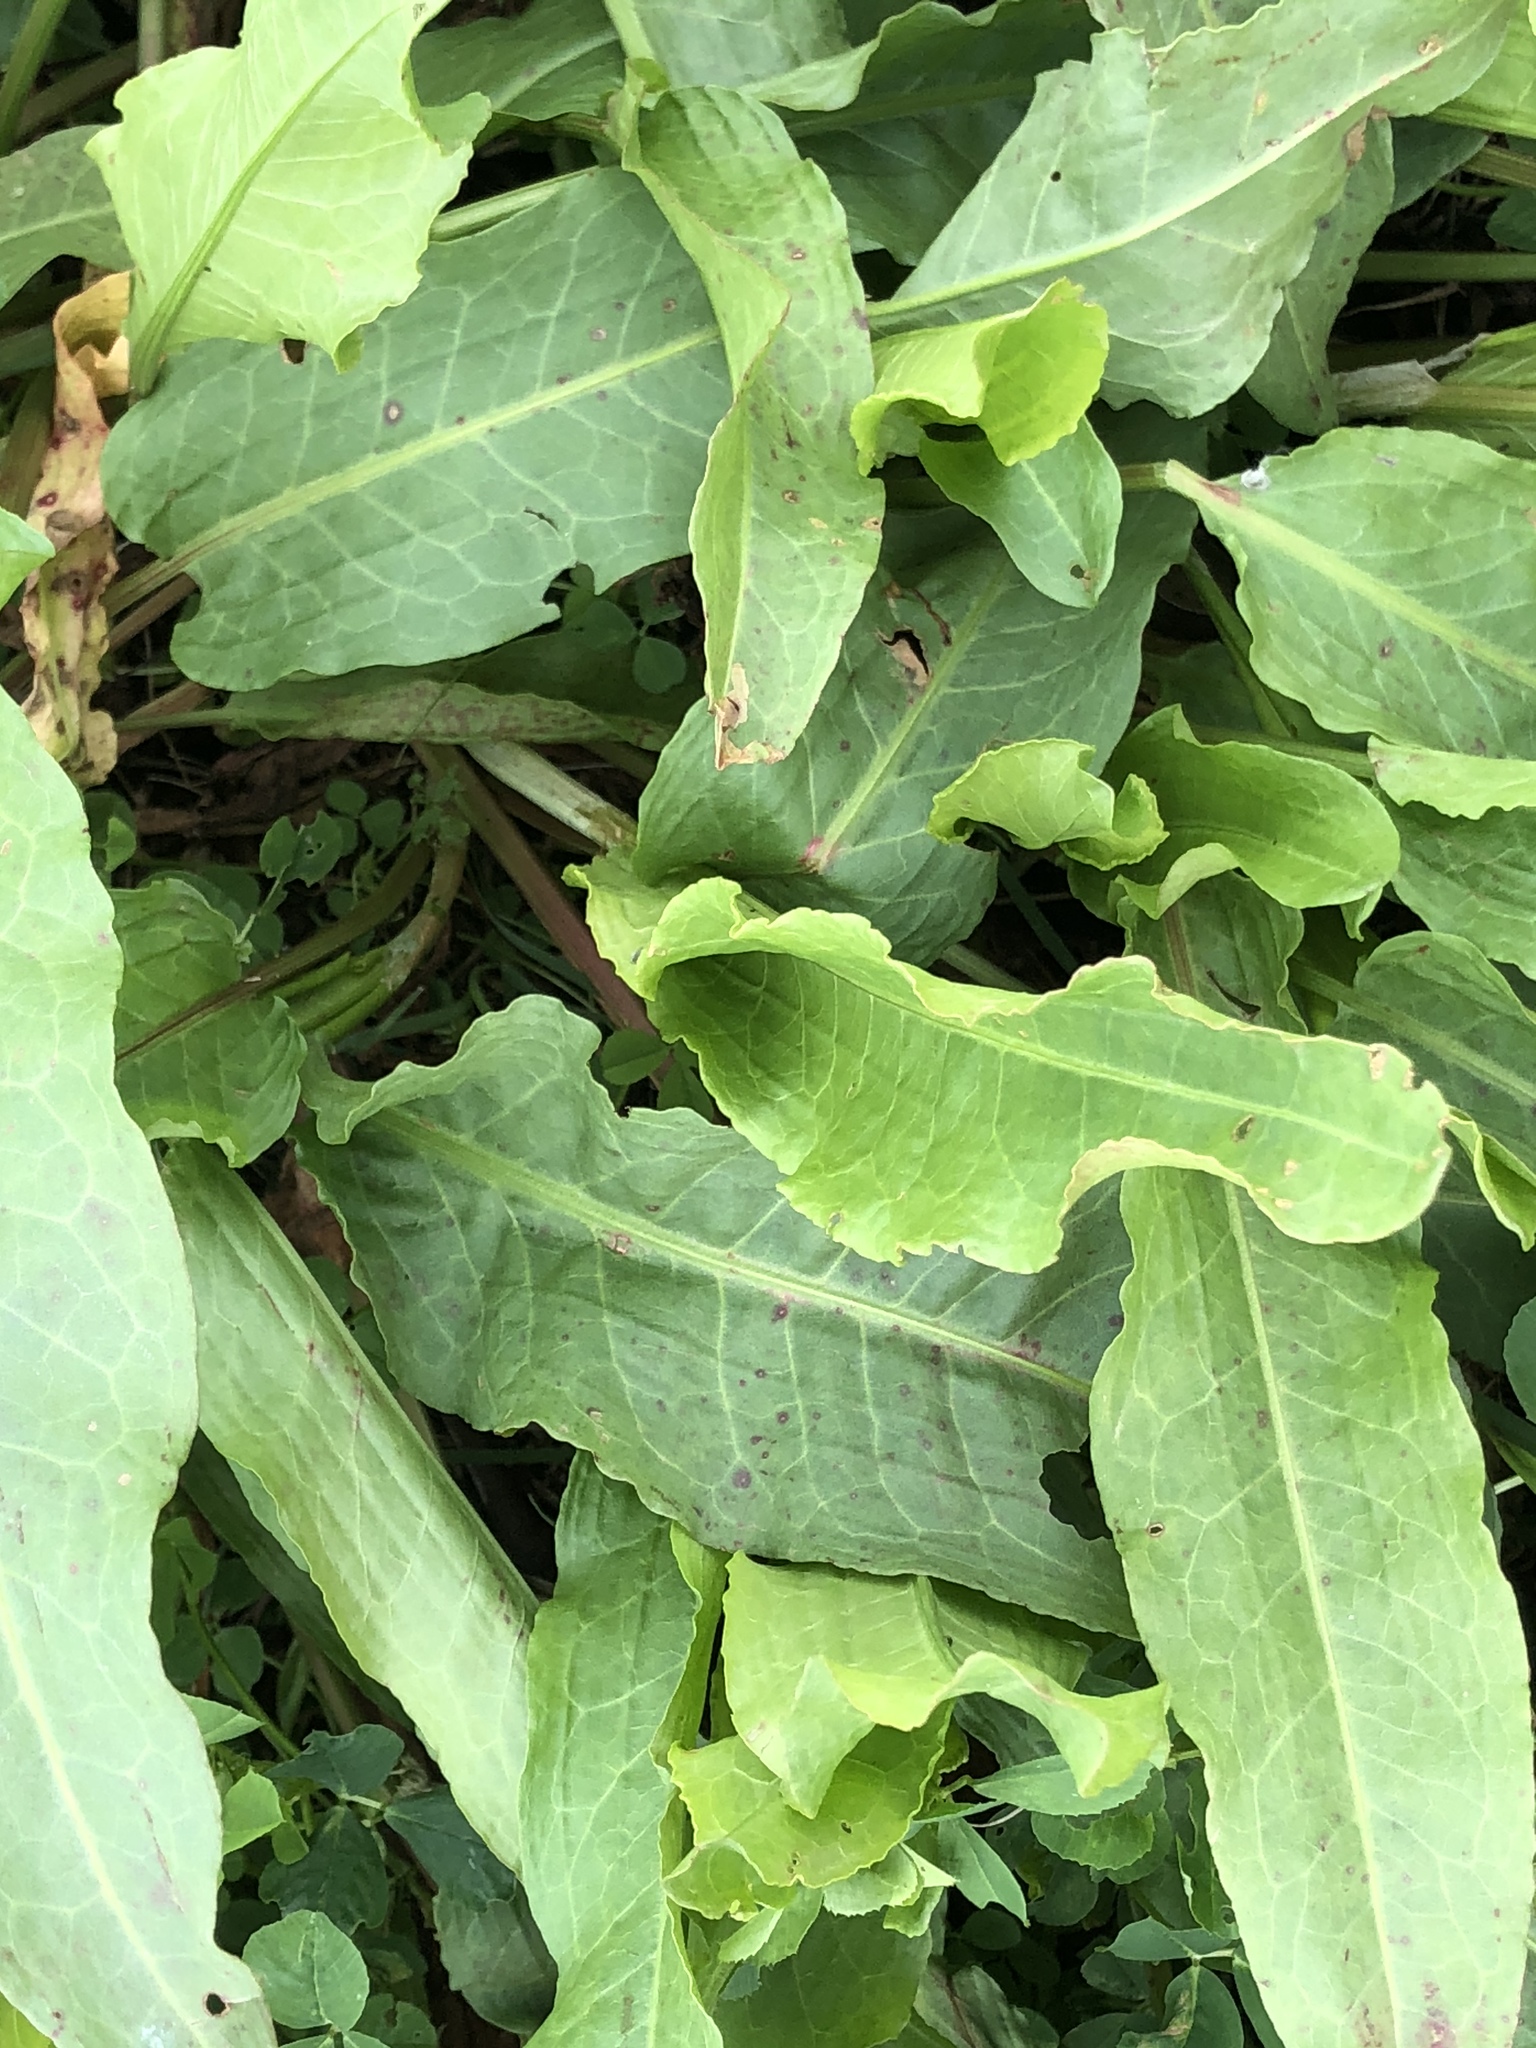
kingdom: Plantae
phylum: Tracheophyta
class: Magnoliopsida
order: Caryophyllales
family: Polygonaceae
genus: Rumex
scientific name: Rumex crispus
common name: Curled dock
